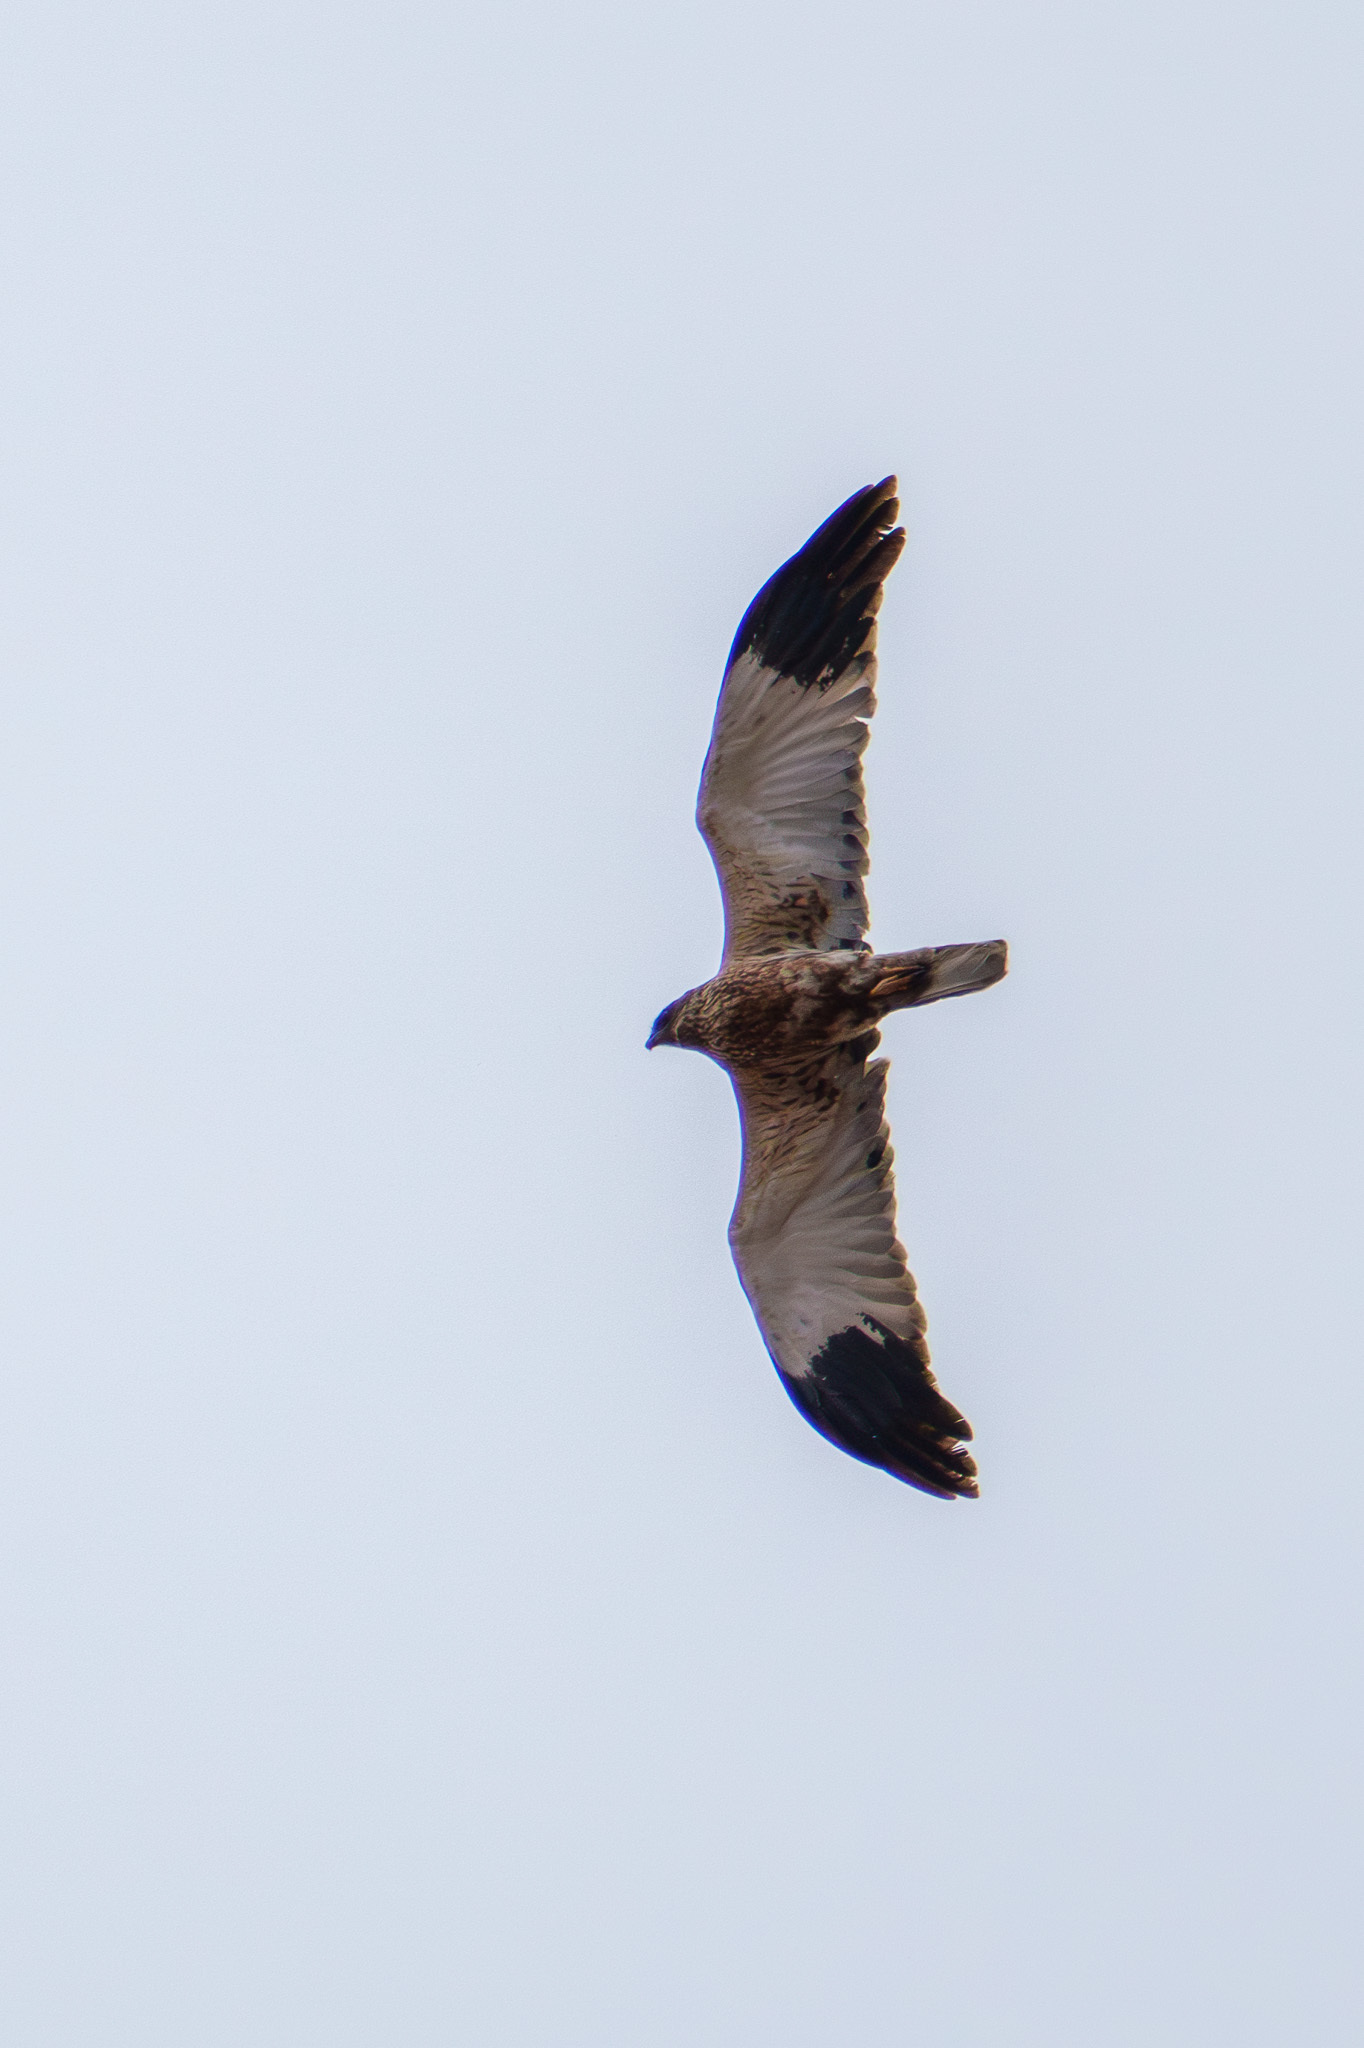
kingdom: Animalia
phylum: Chordata
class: Aves
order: Accipitriformes
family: Accipitridae
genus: Circus
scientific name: Circus aeruginosus
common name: Western marsh harrier
